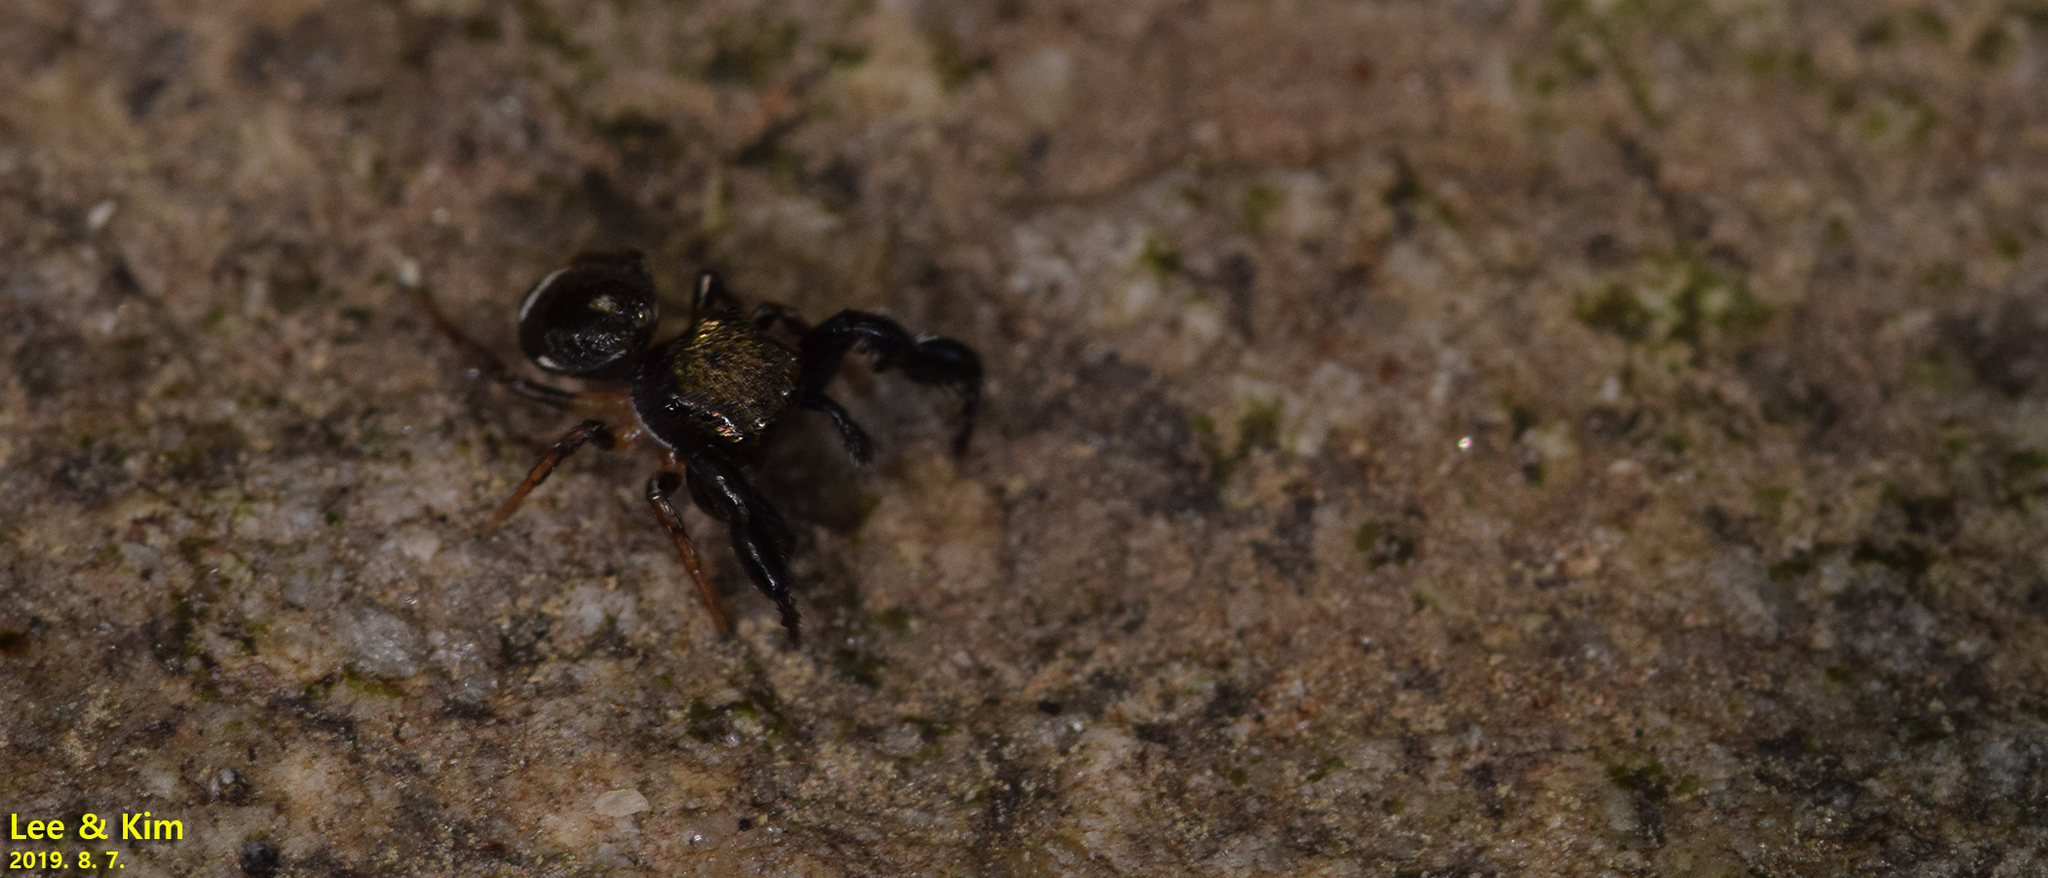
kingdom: Animalia
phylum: Arthropoda
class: Arachnida
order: Araneae
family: Salticidae
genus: Harmochirus
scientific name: Harmochirus brachiatus
